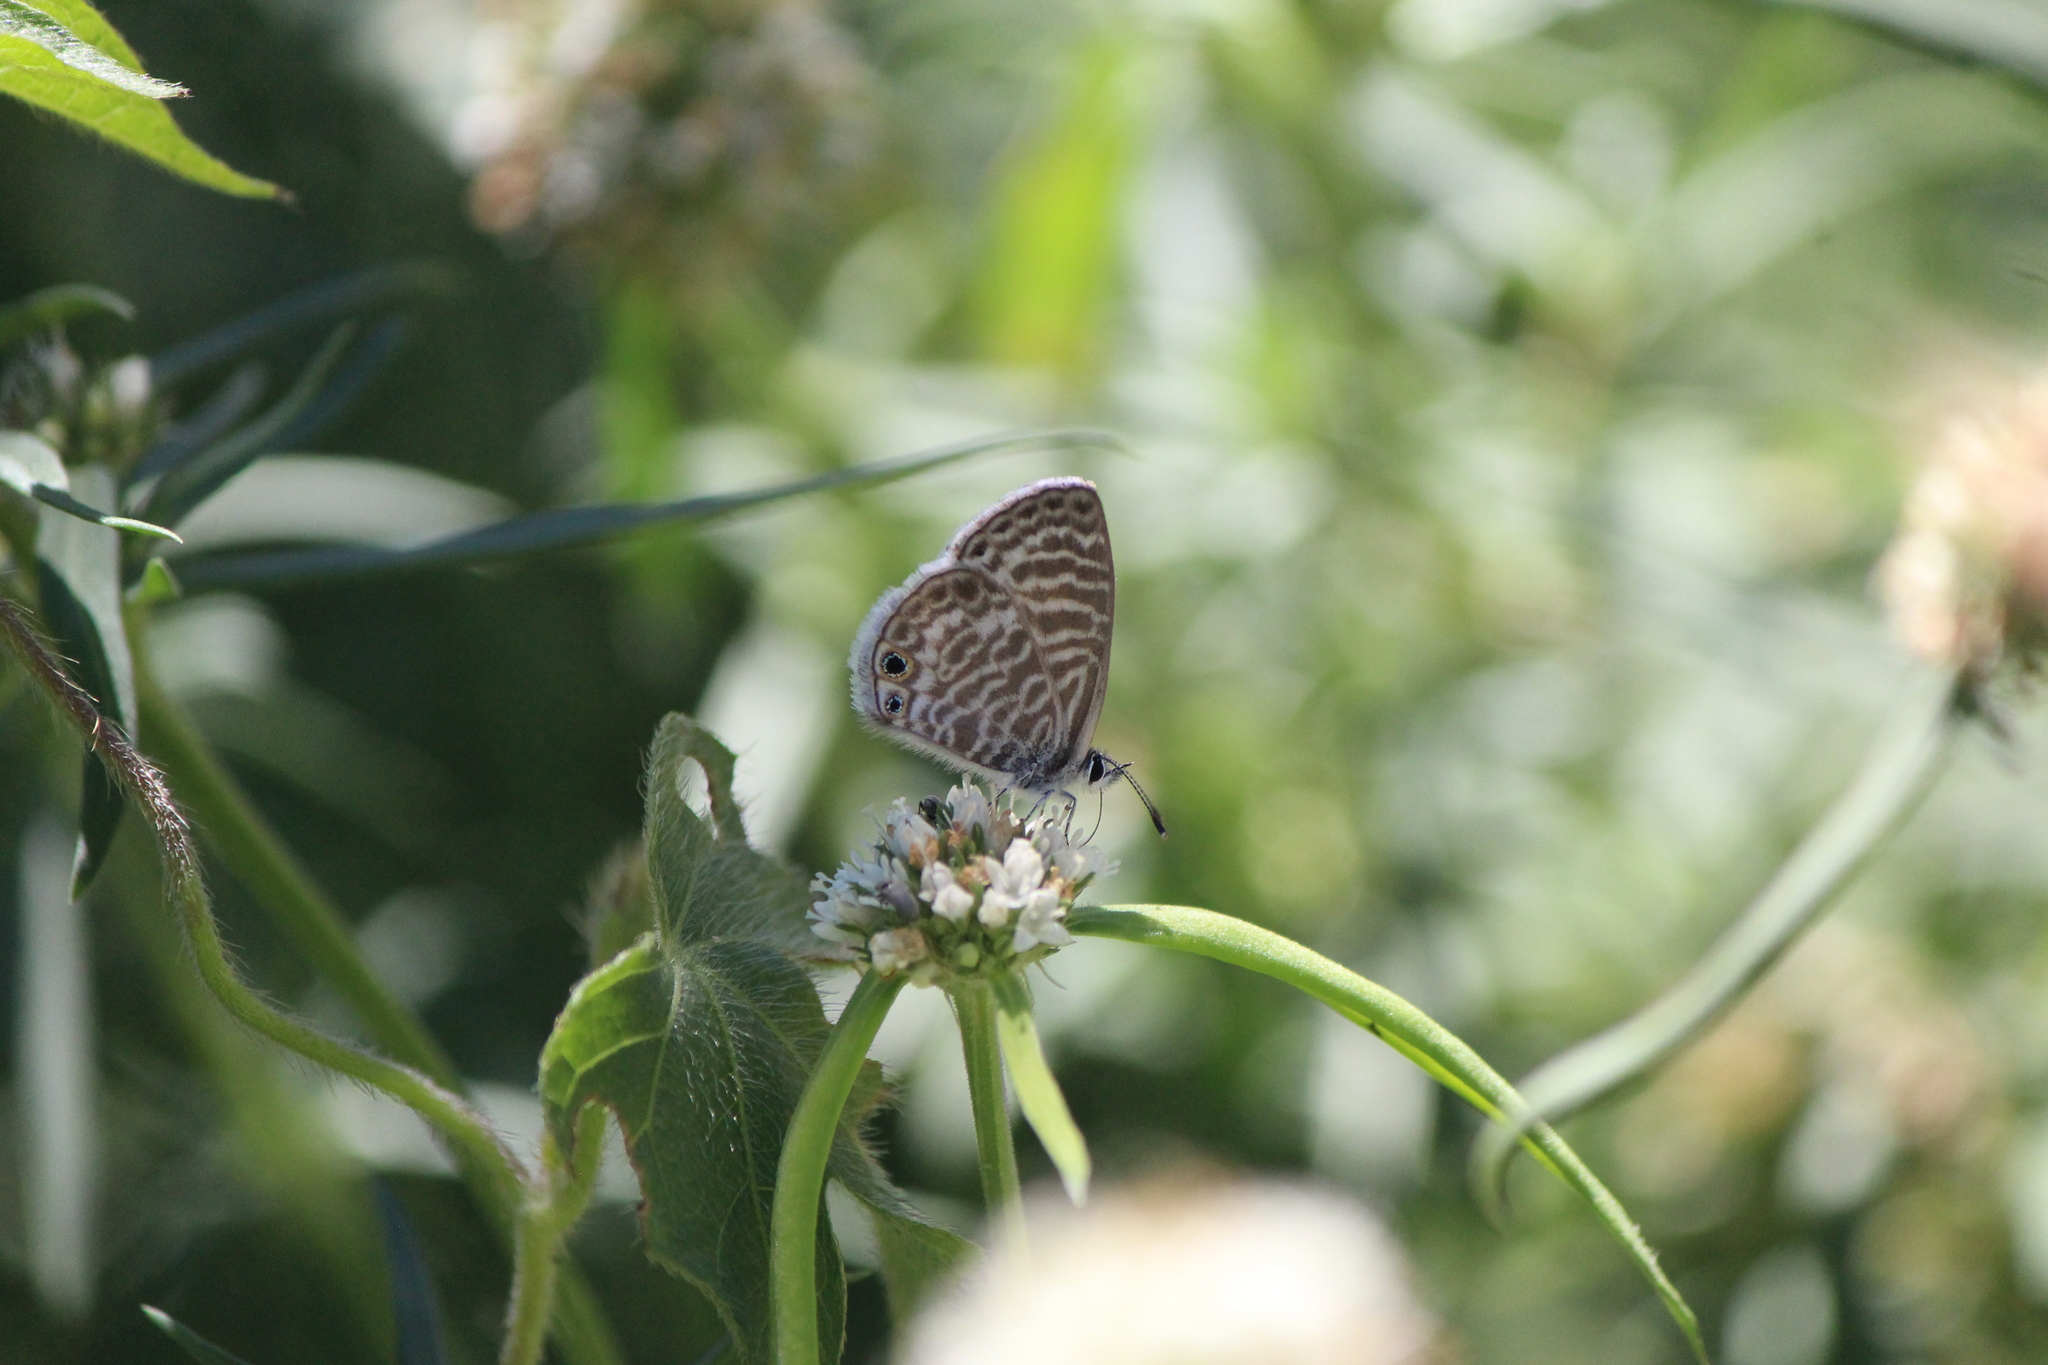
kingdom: Animalia
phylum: Arthropoda
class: Insecta
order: Lepidoptera
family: Lycaenidae
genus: Leptotes
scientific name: Leptotes marina
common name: Marine blue
